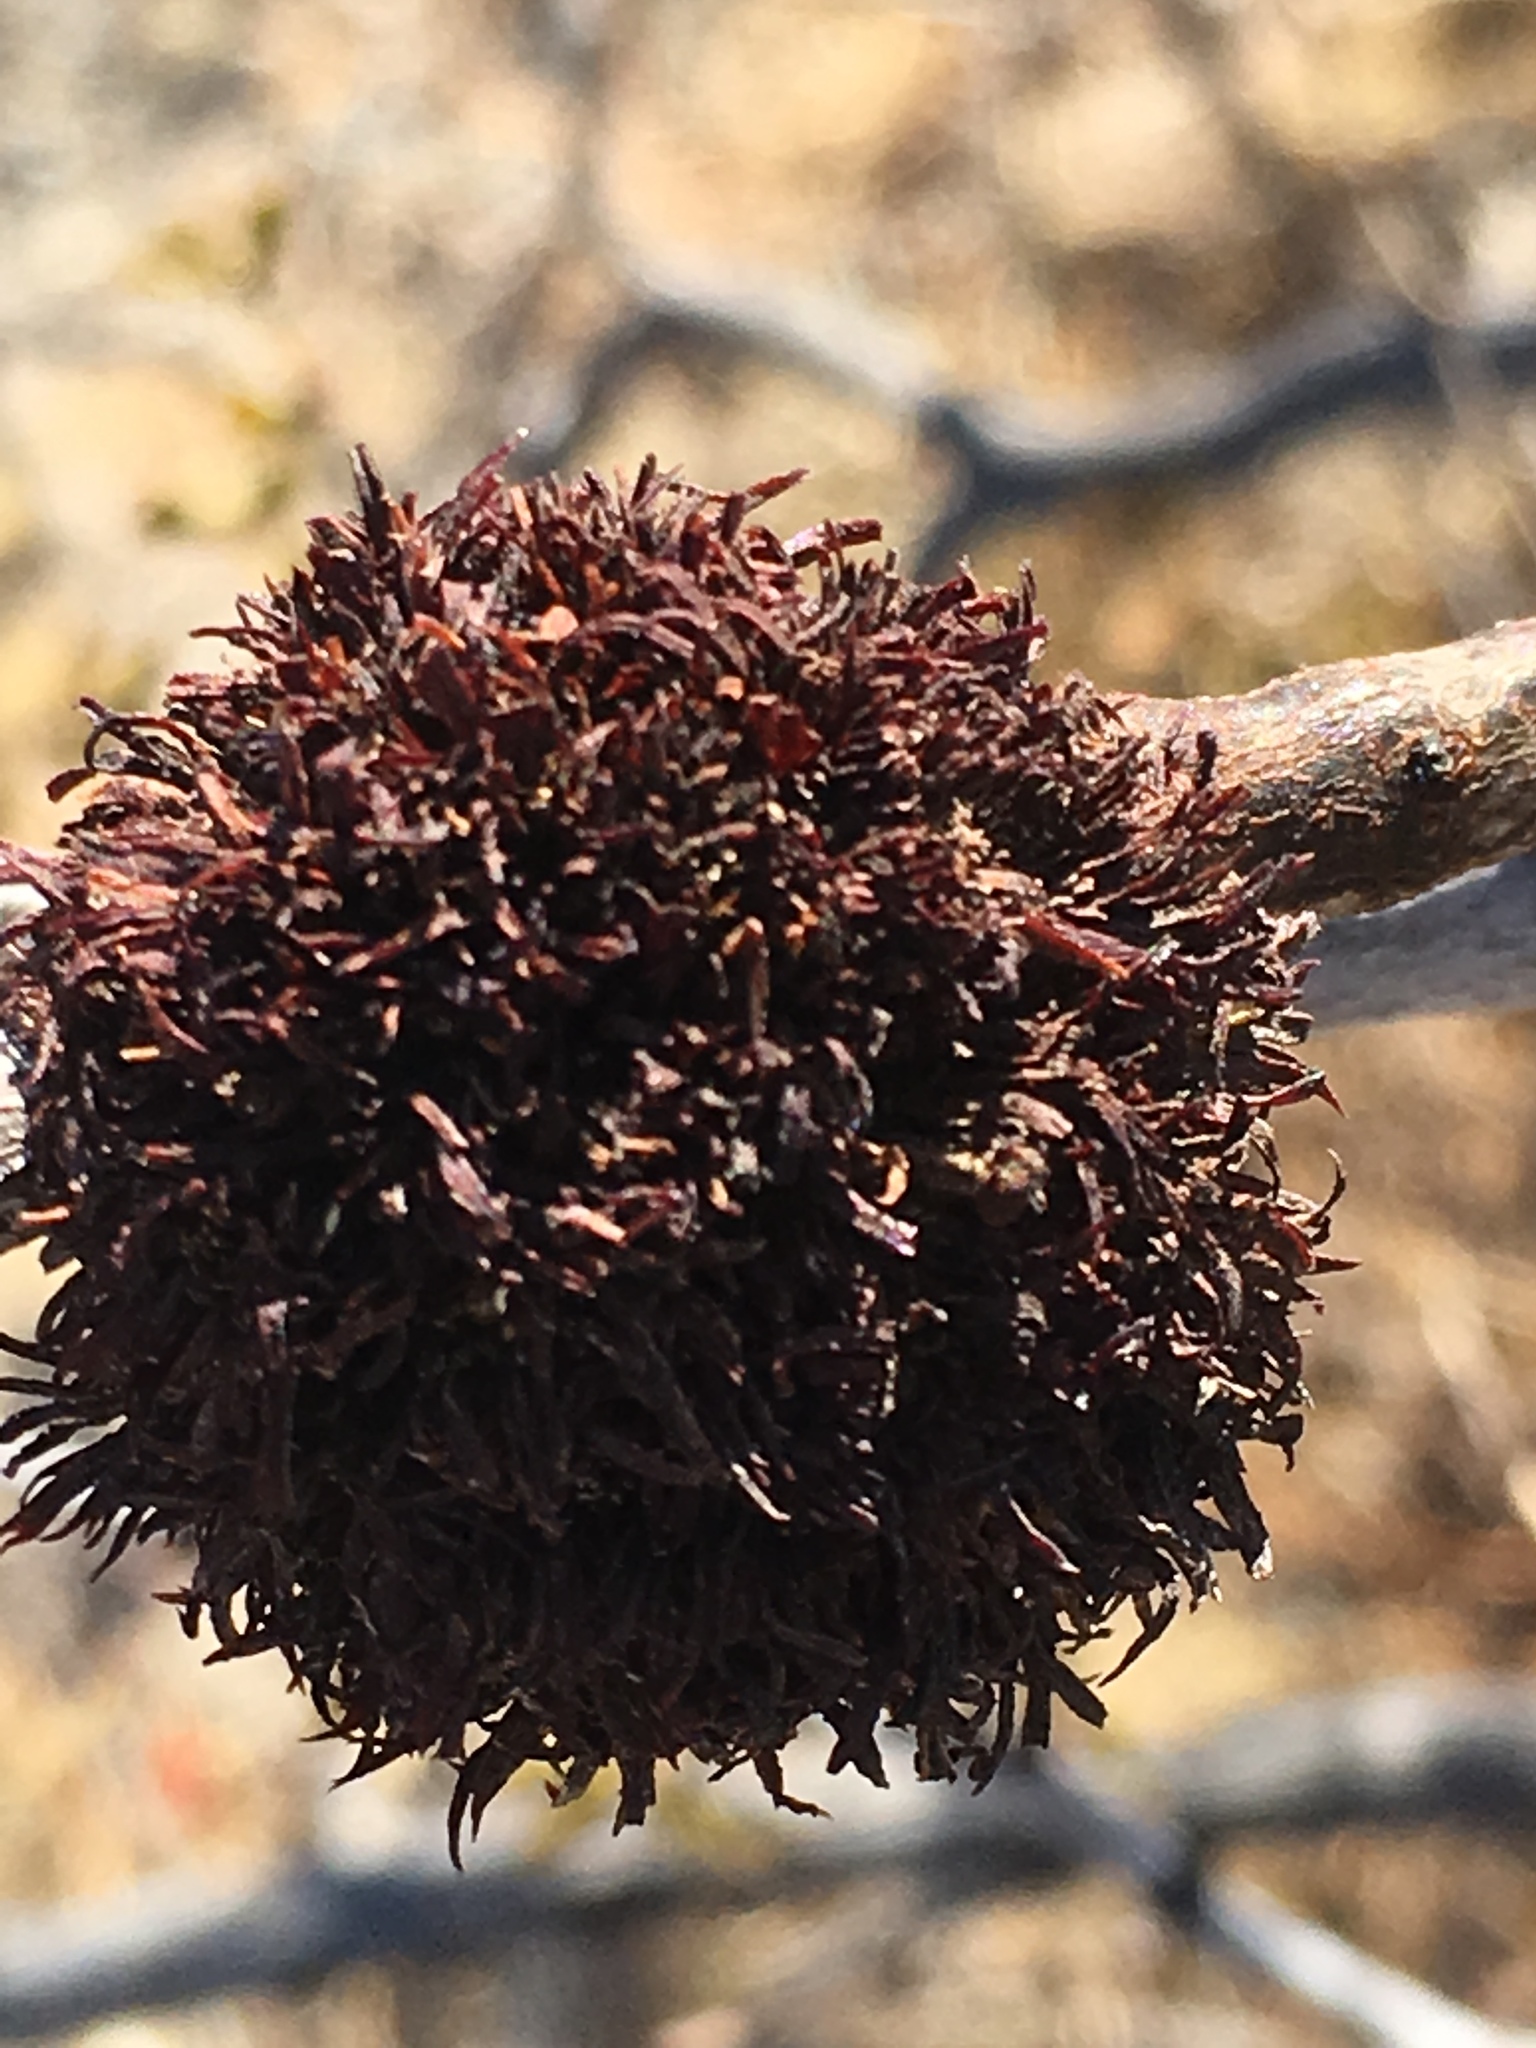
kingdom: Animalia
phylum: Arthropoda
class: Insecta
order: Diptera
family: Cecidomyiidae
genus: Asphondylia
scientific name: Asphondylia auripila
